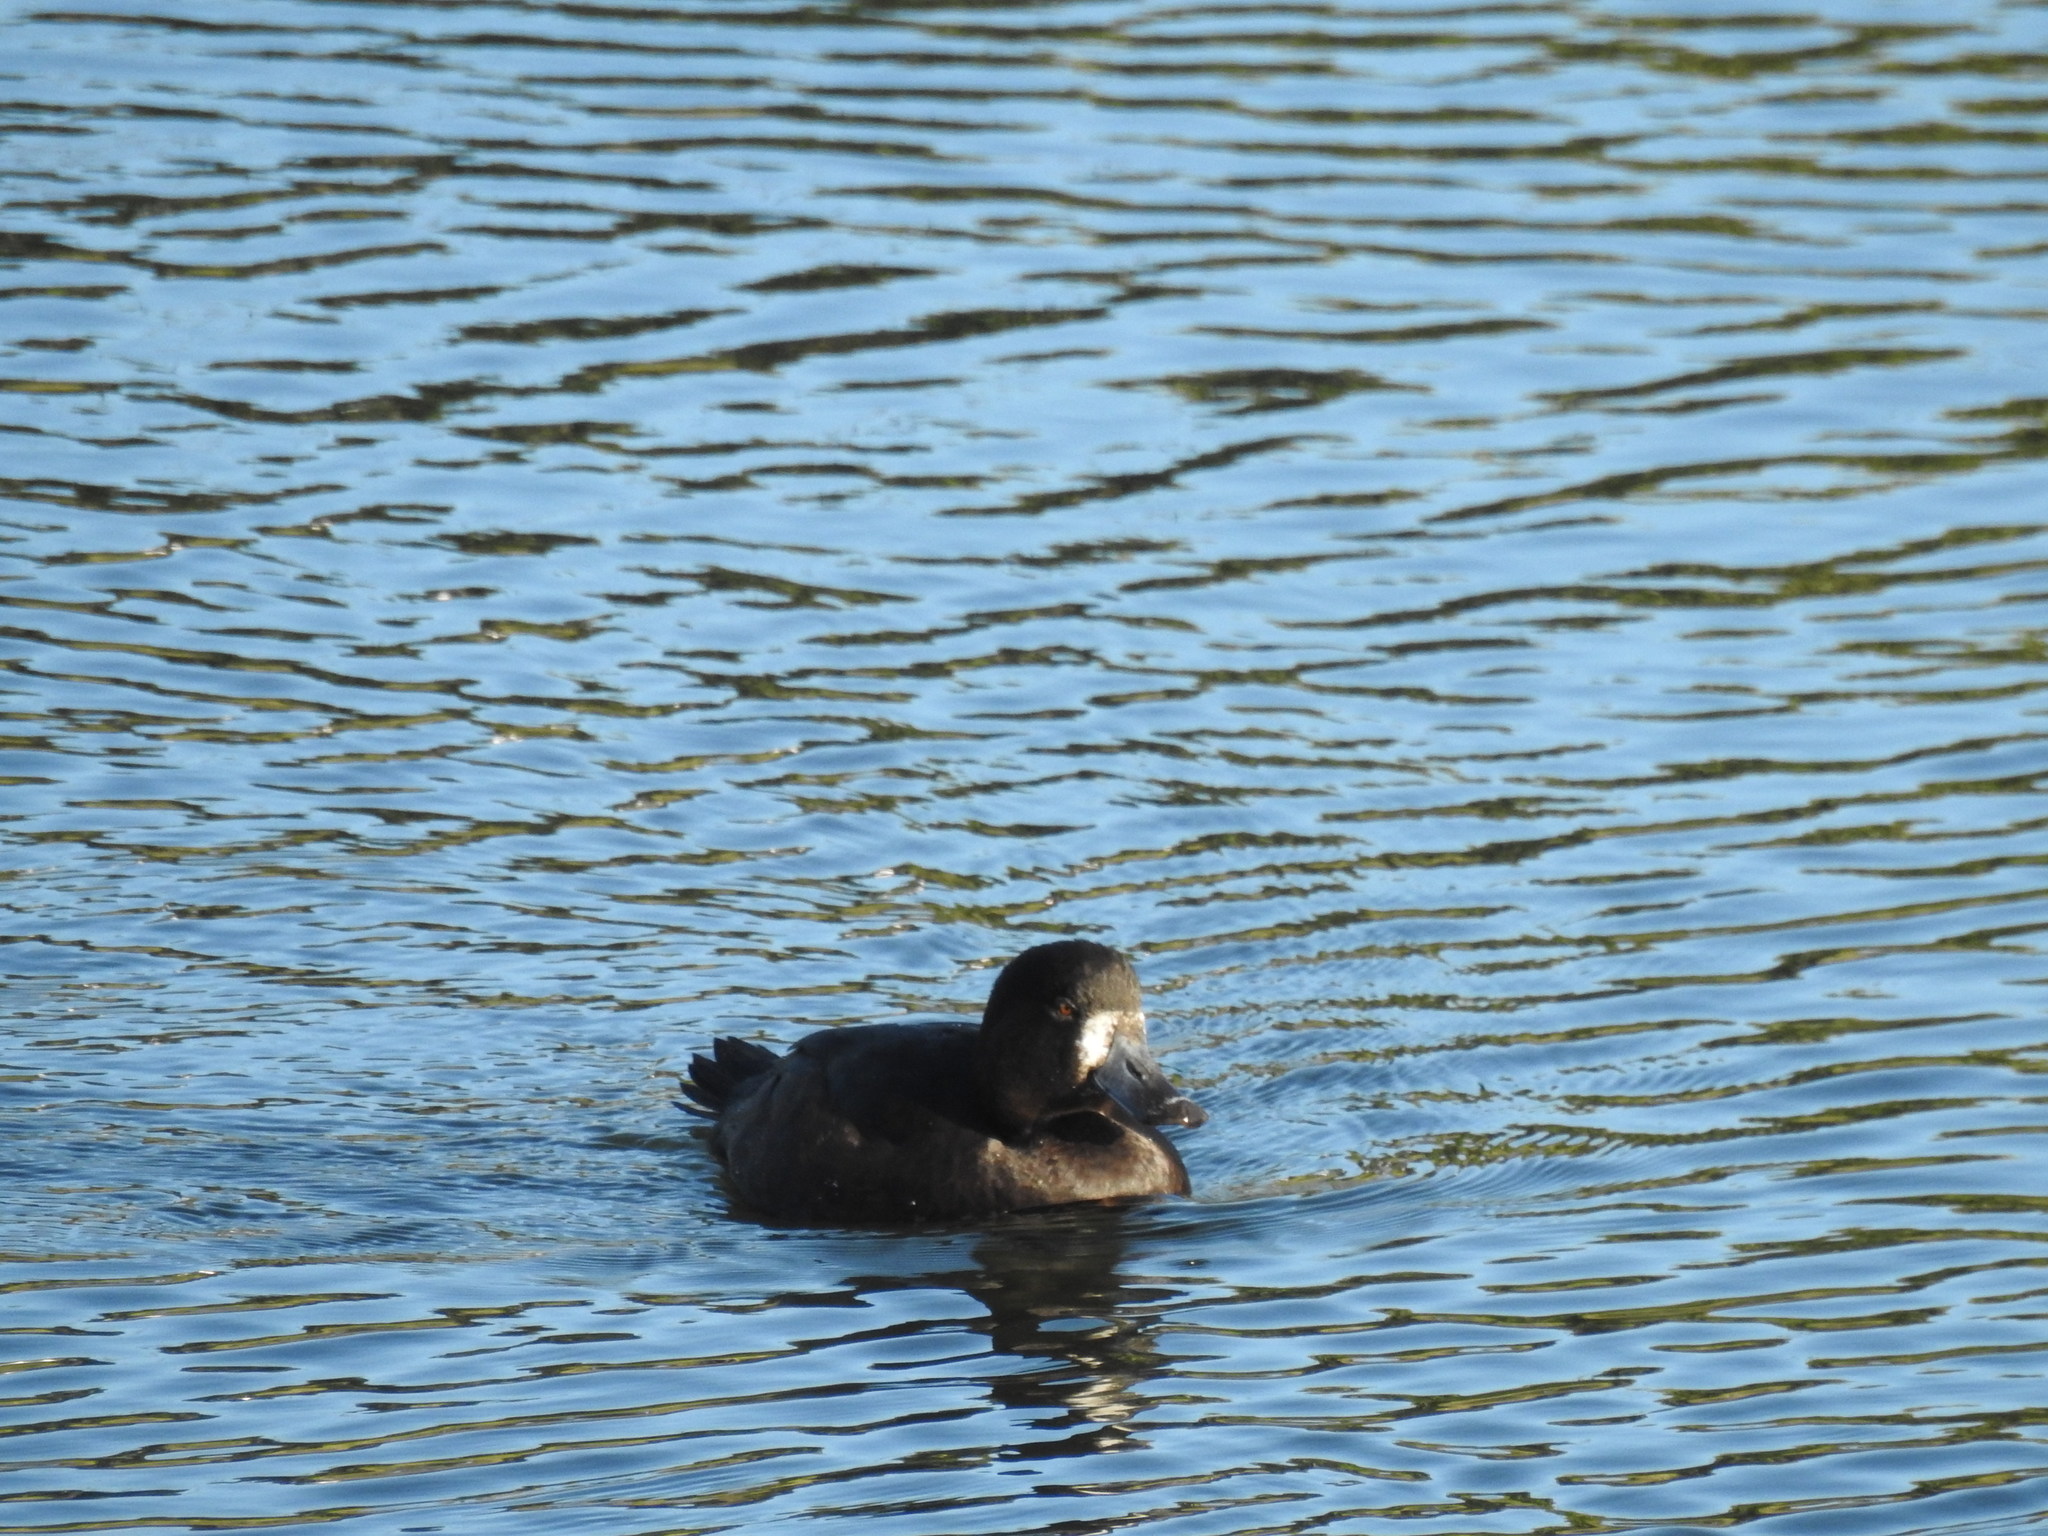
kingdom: Animalia
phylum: Chordata
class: Aves
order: Anseriformes
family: Anatidae
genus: Aythya
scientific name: Aythya novaeseelandiae
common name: New zealand scaup
